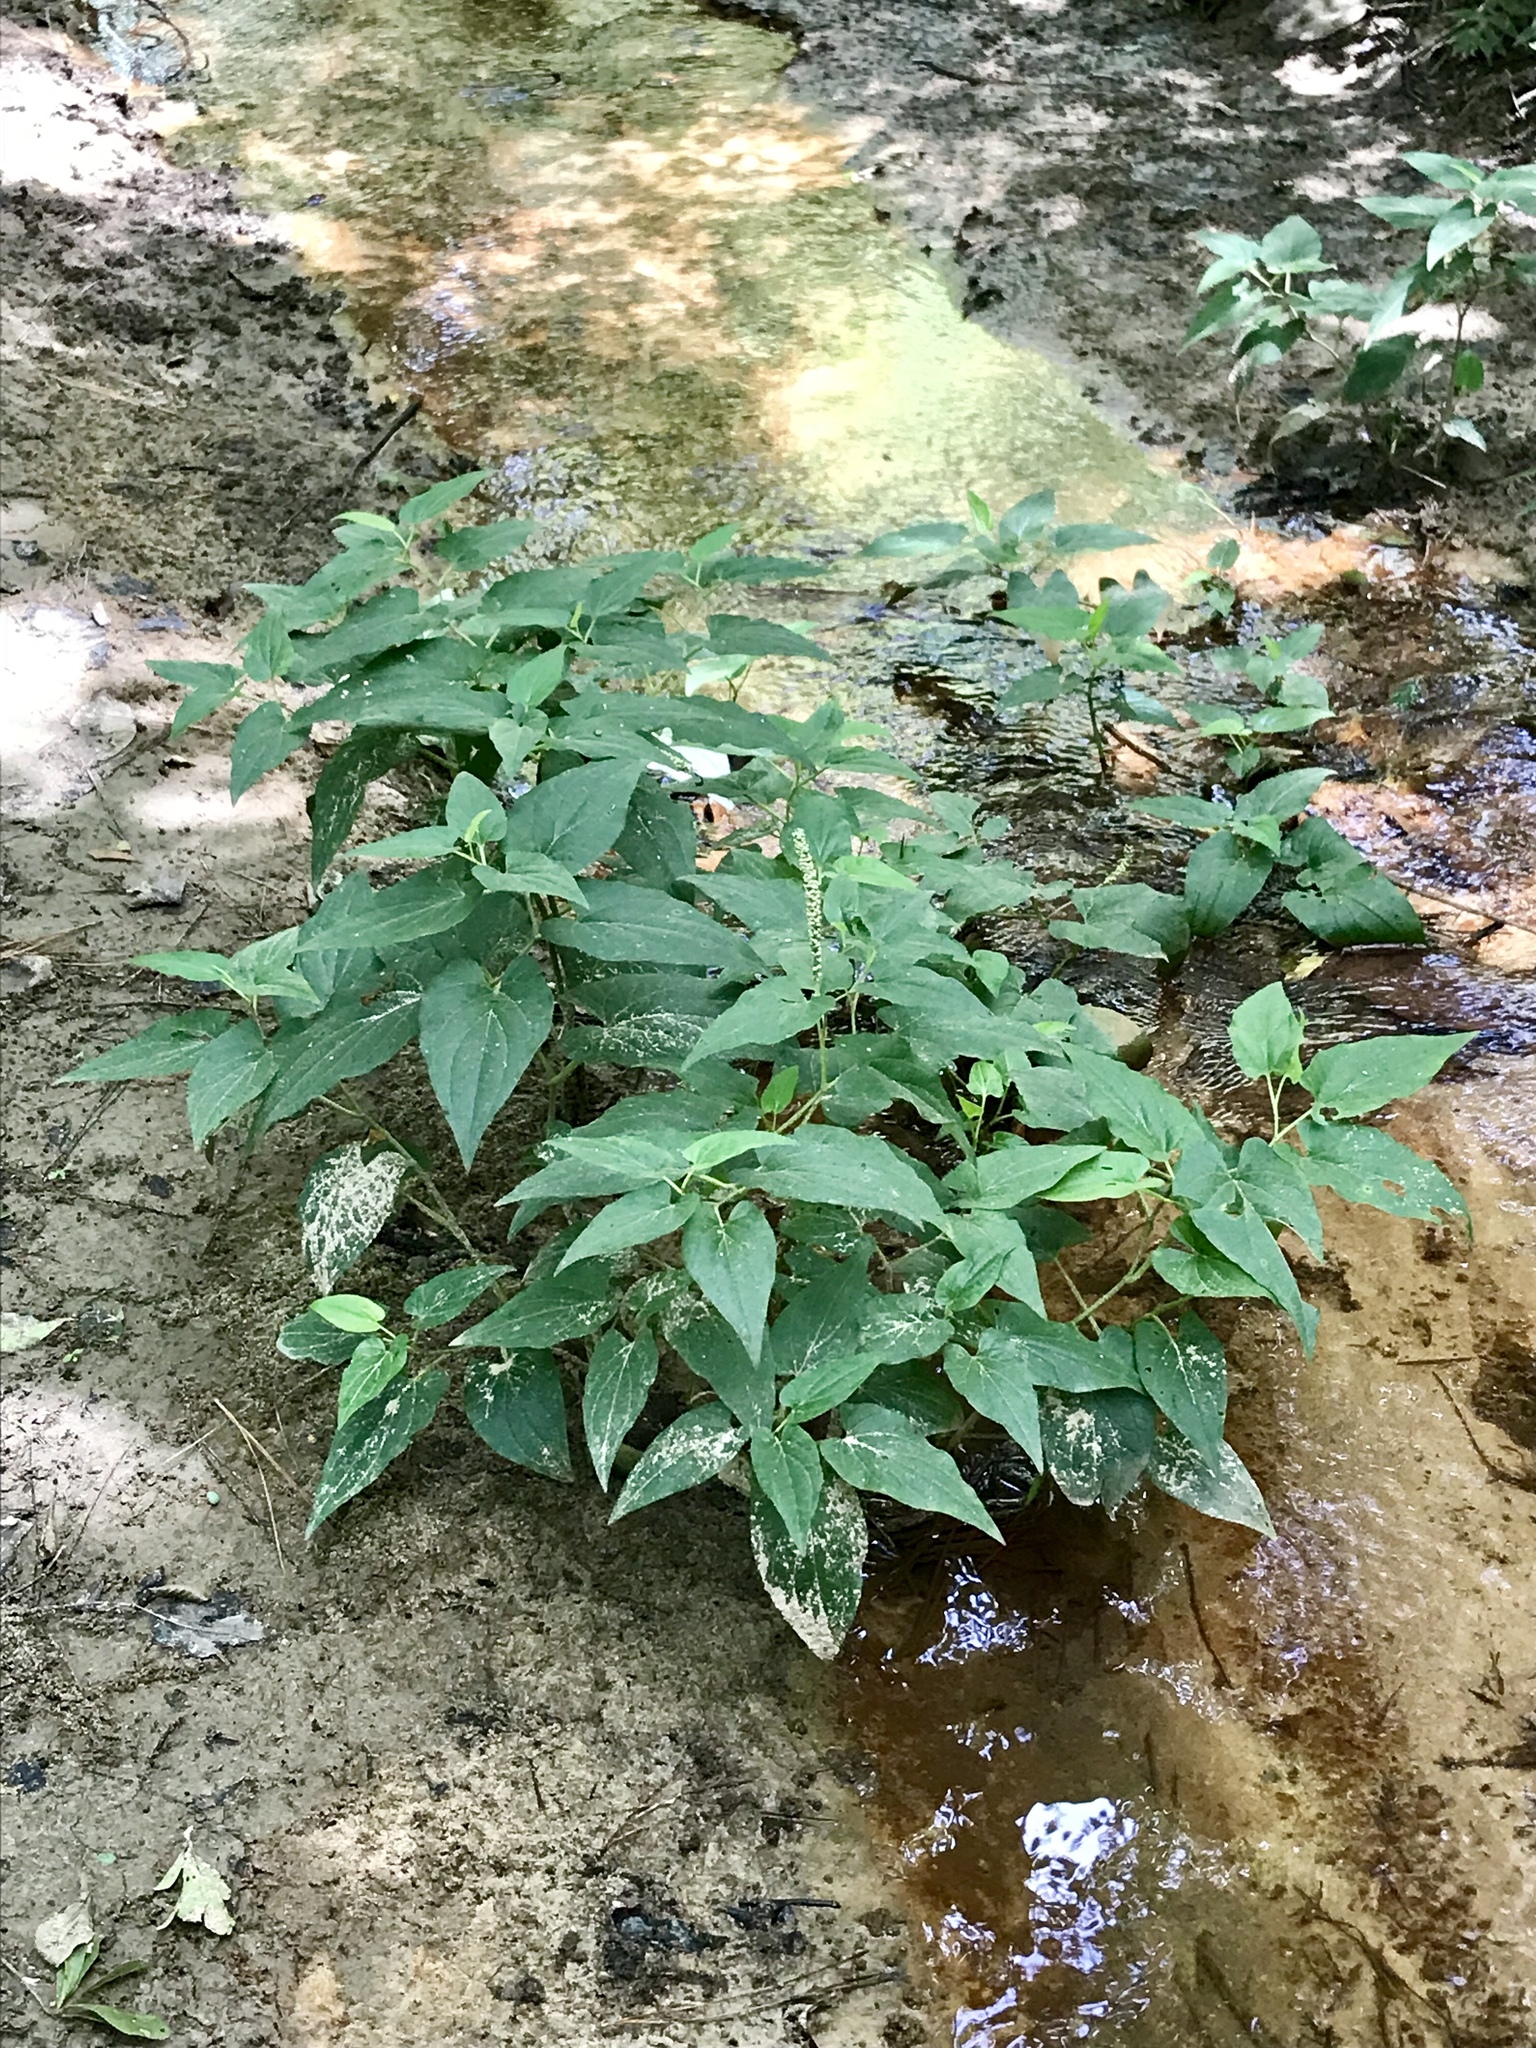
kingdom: Plantae
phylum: Tracheophyta
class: Magnoliopsida
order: Piperales
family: Saururaceae
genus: Saururus
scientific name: Saururus cernuus
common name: Lizard's-tail
